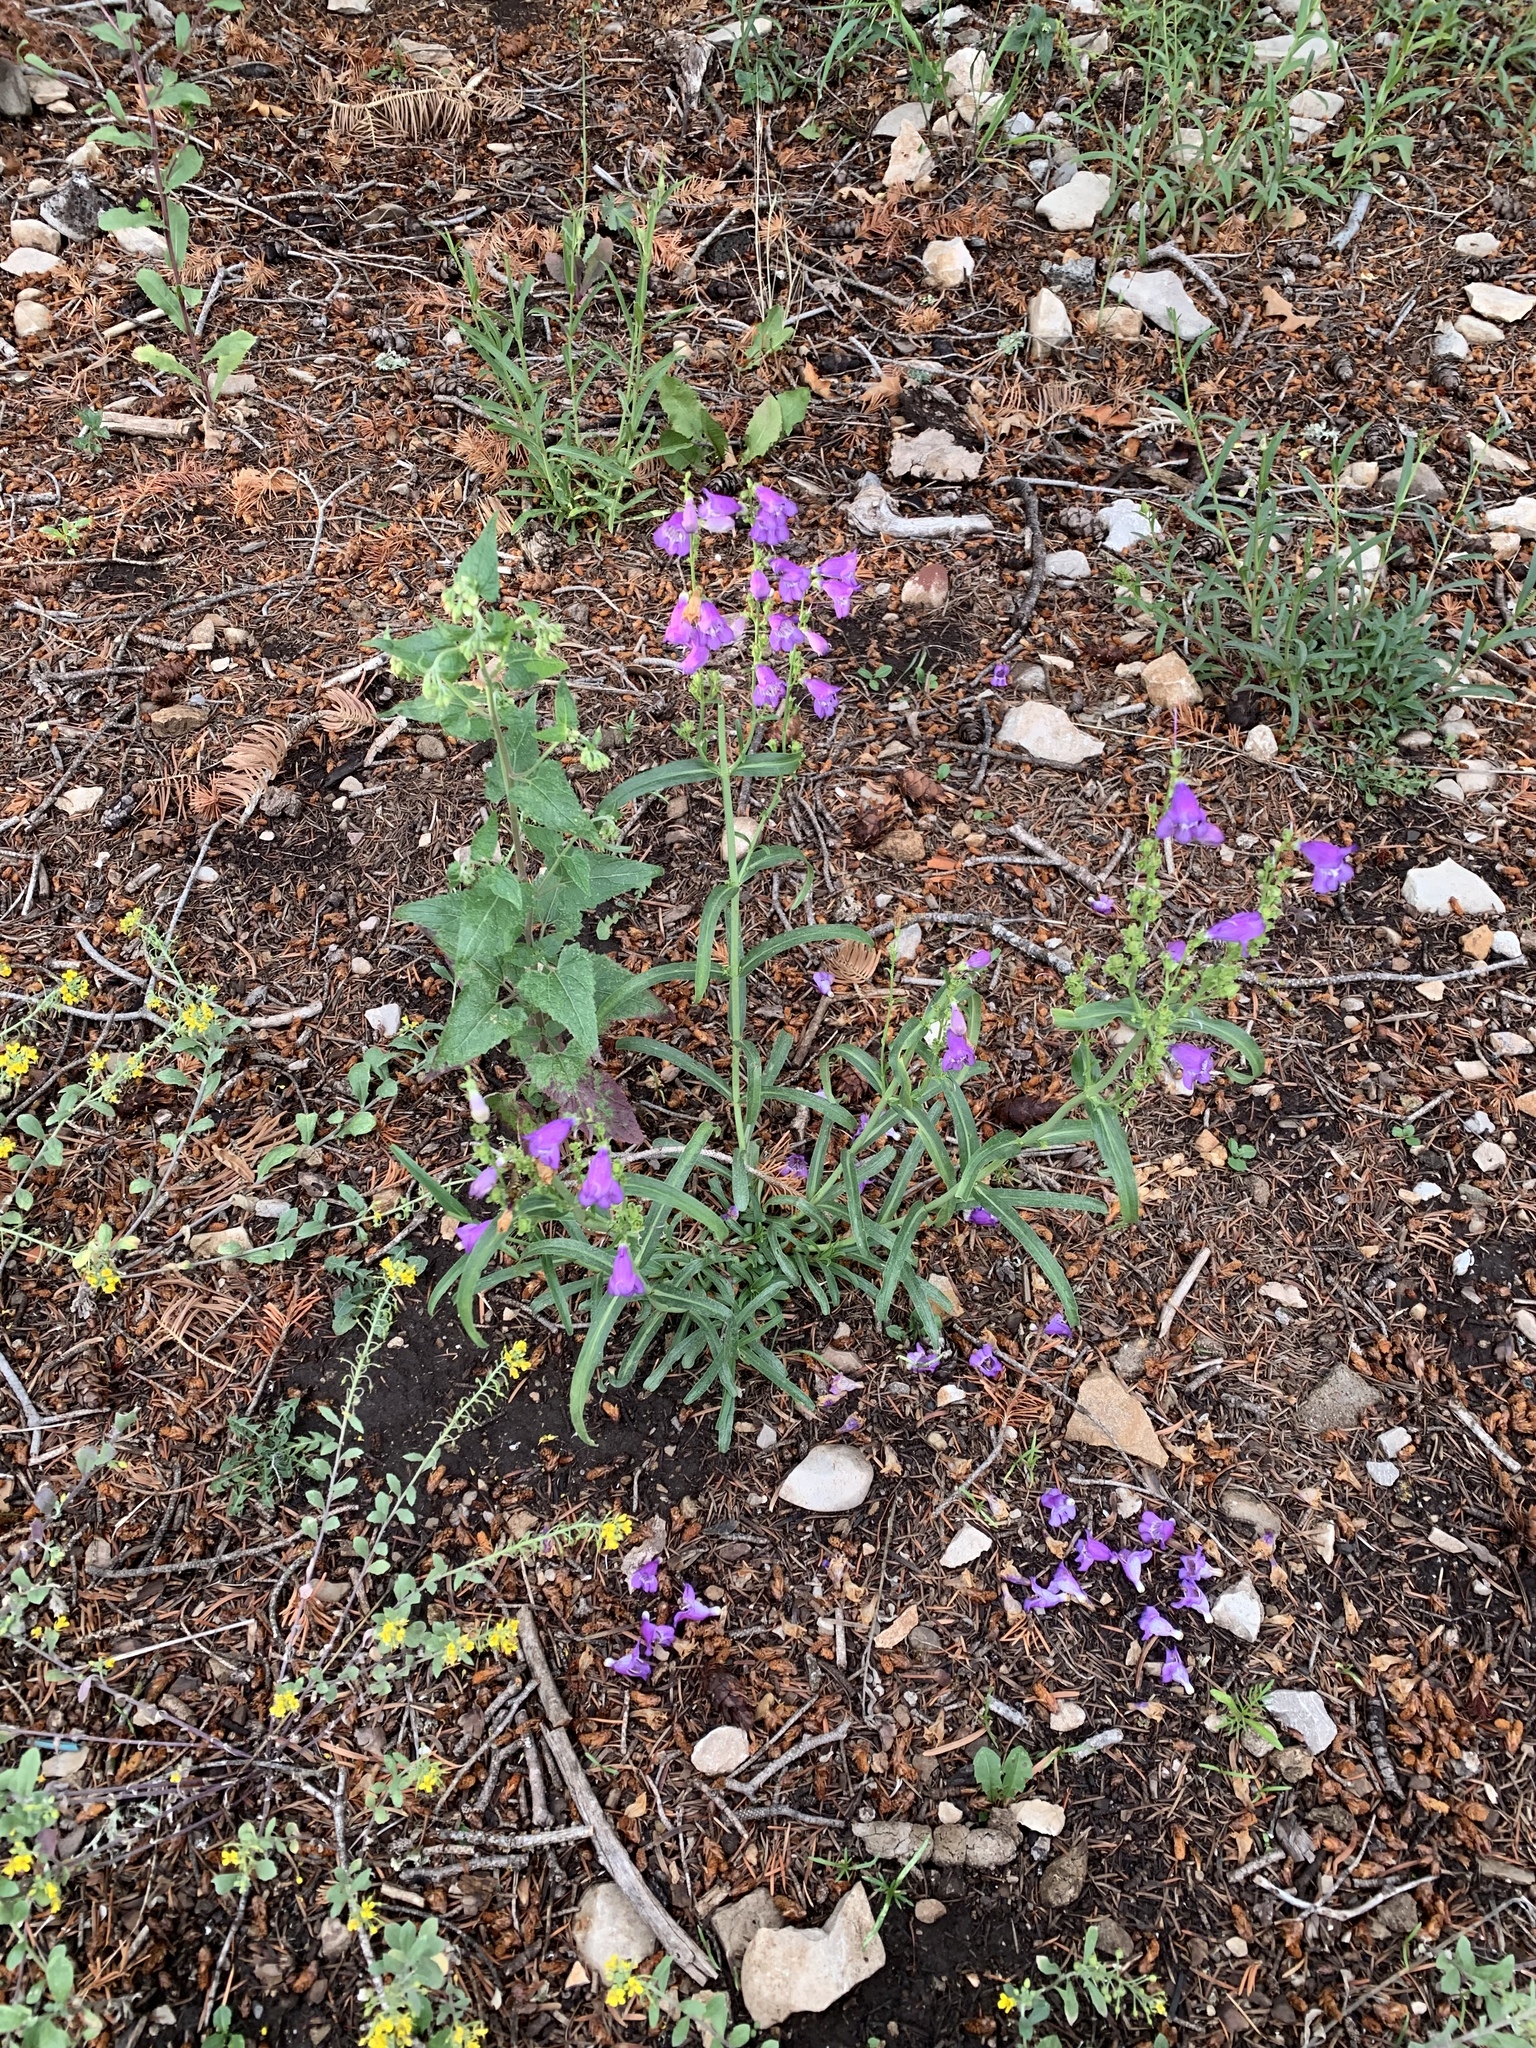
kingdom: Plantae
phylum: Tracheophyta
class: Magnoliopsida
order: Lamiales
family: Plantaginaceae
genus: Penstemon
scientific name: Penstemon neomexicanus
